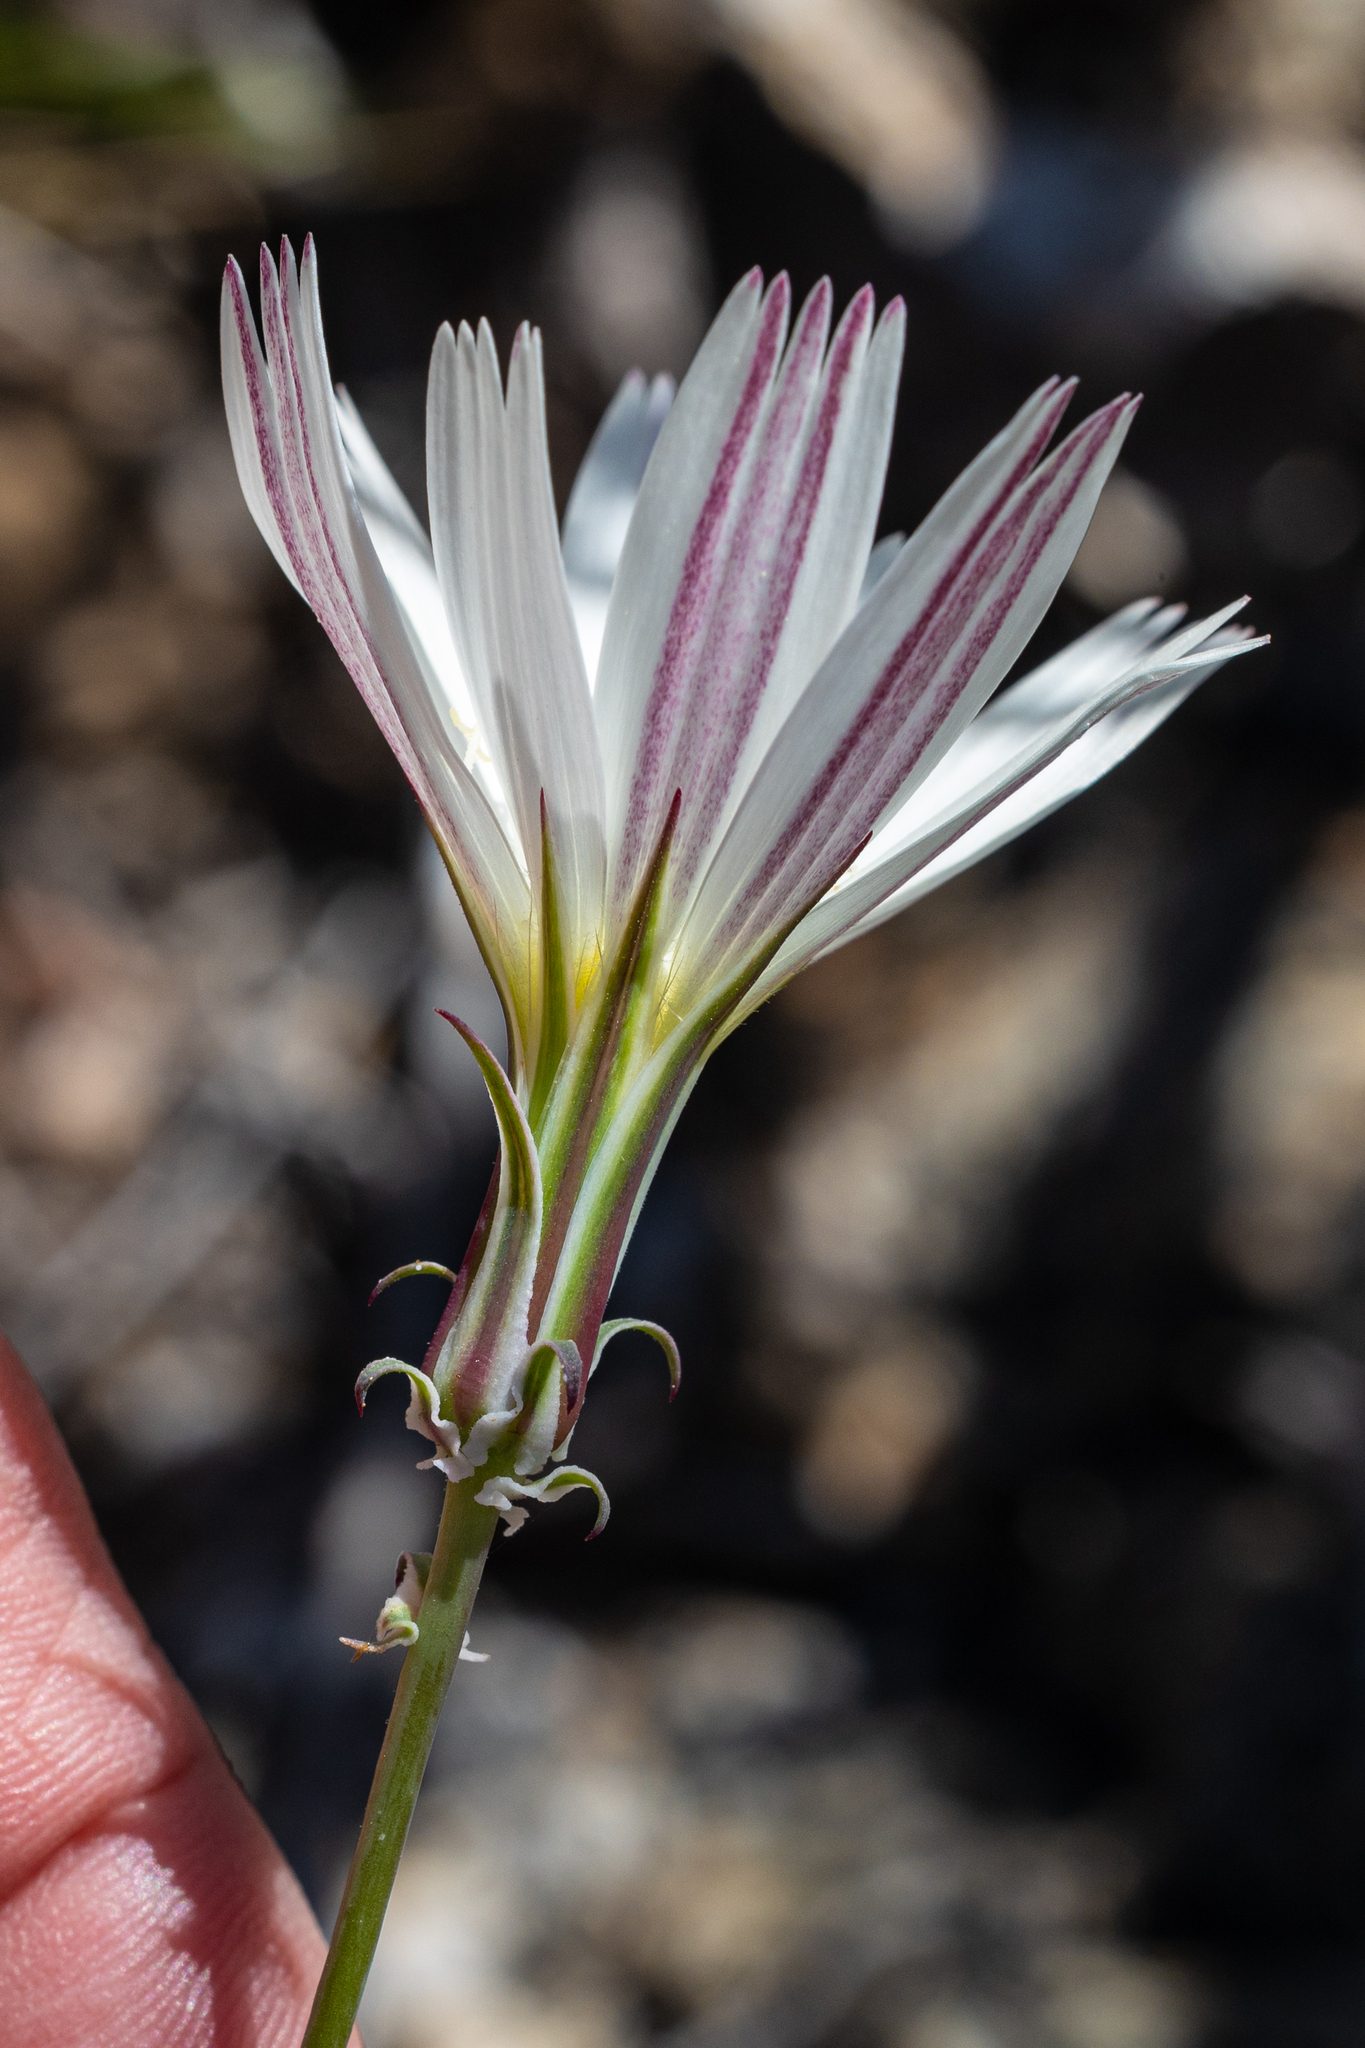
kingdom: Plantae
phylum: Tracheophyta
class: Magnoliopsida
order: Asterales
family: Asteraceae
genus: Rafinesquia
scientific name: Rafinesquia neomexicana
